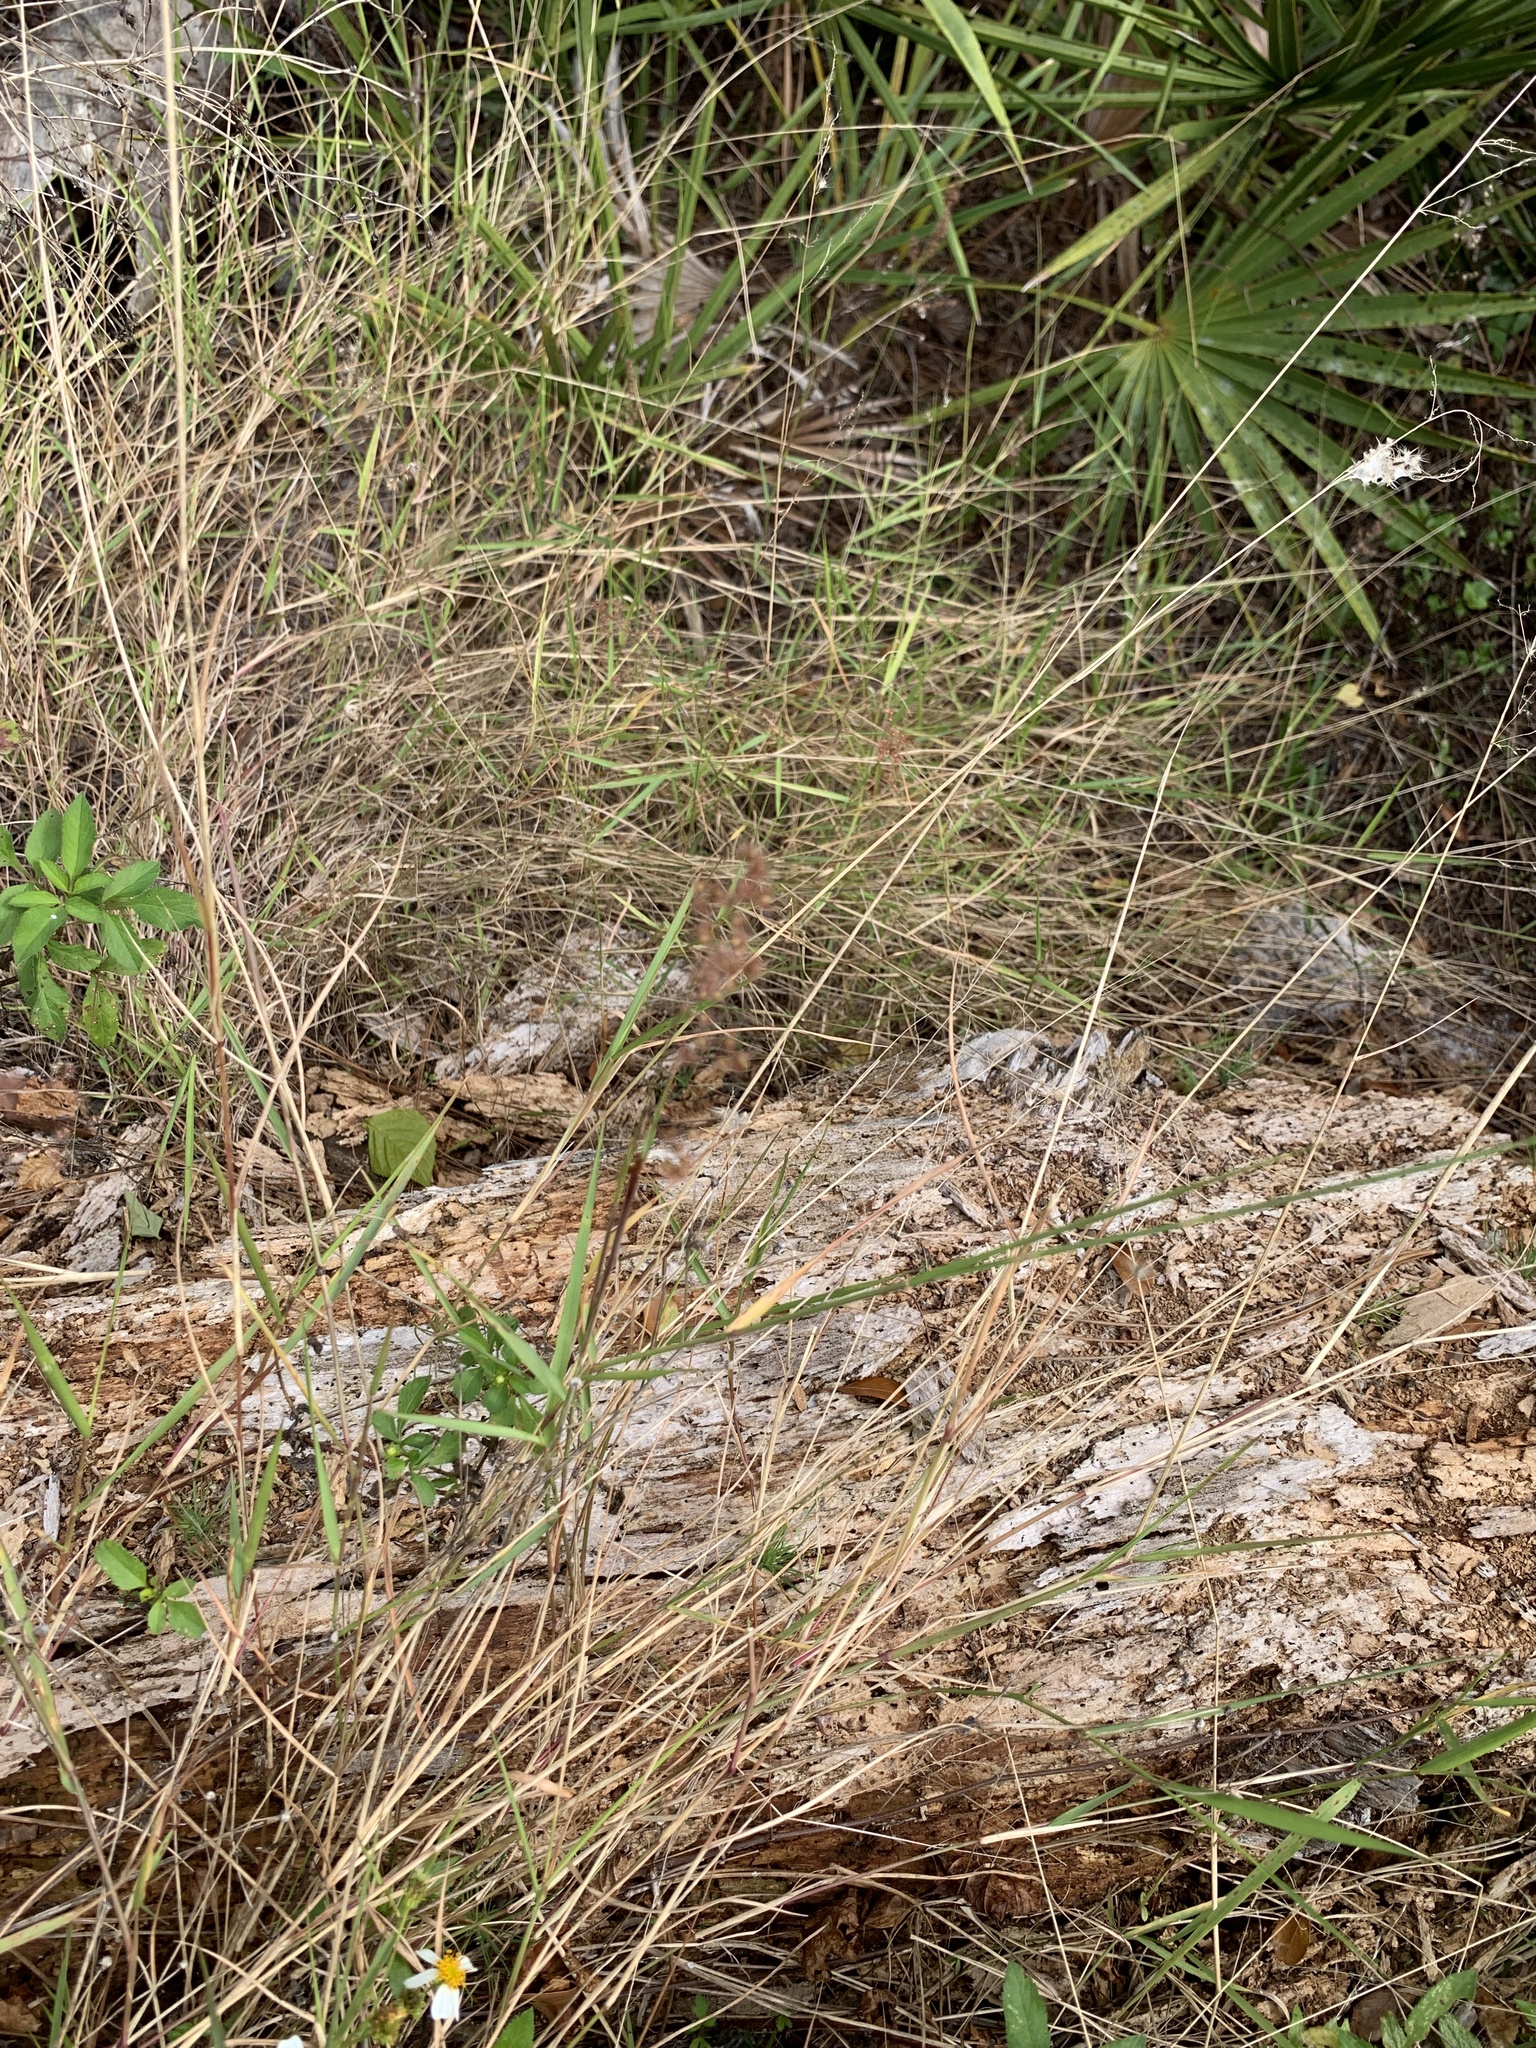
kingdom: Plantae
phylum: Tracheophyta
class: Liliopsida
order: Poales
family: Poaceae
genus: Melinis
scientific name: Melinis repens
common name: Rose natal grass
